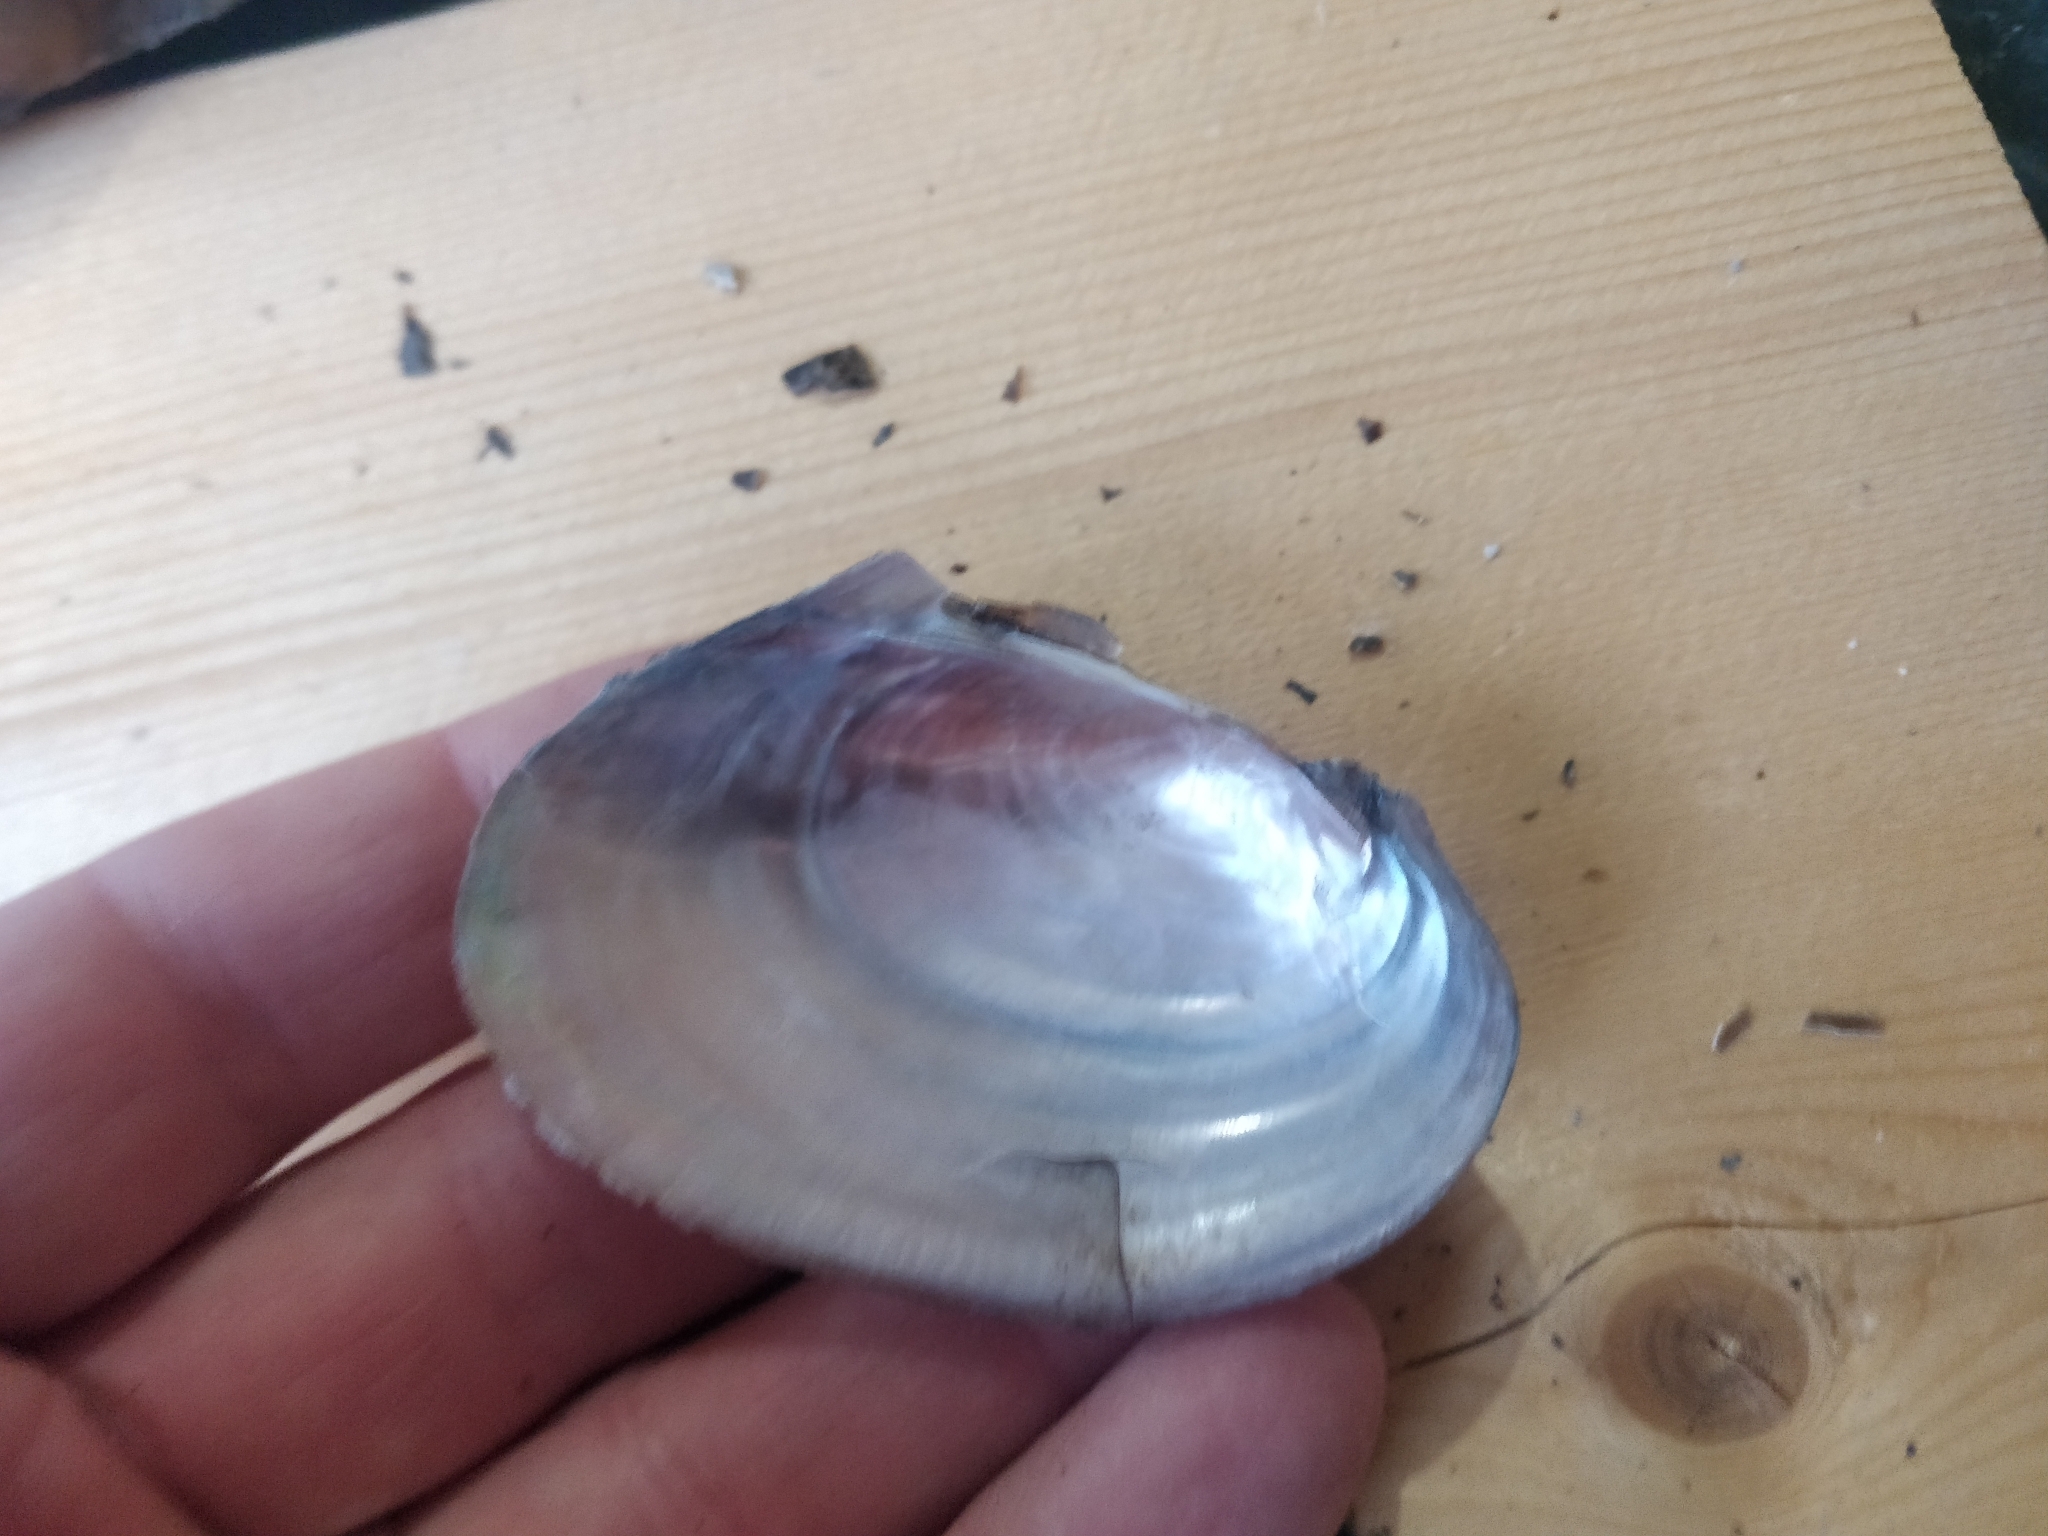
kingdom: Animalia
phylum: Mollusca
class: Bivalvia
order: Unionida
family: Unionidae
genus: Potamilus
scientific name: Potamilus ohiensis
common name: Pink papershell
